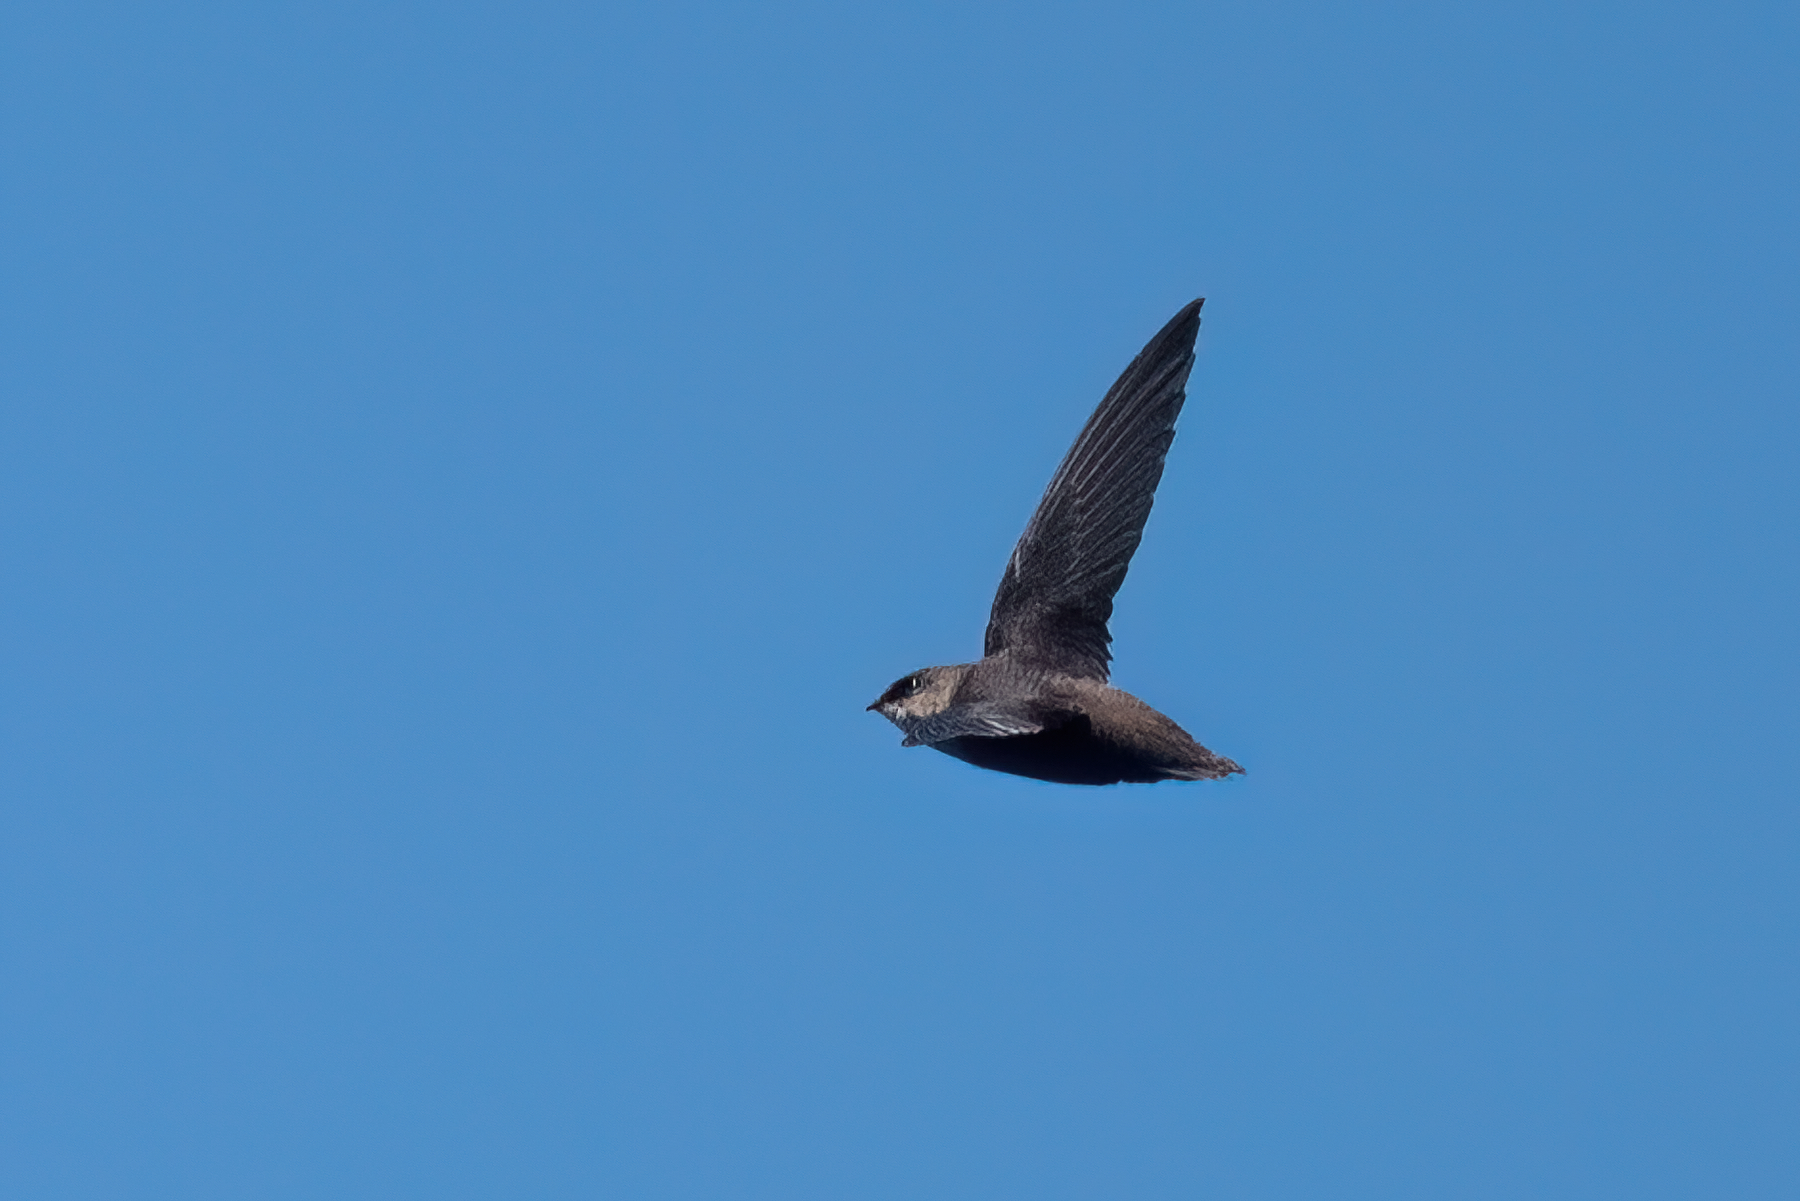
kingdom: Animalia
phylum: Chordata
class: Aves
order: Apodiformes
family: Apodidae
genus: Chaetura
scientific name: Chaetura vauxi
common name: Vaux's swift
